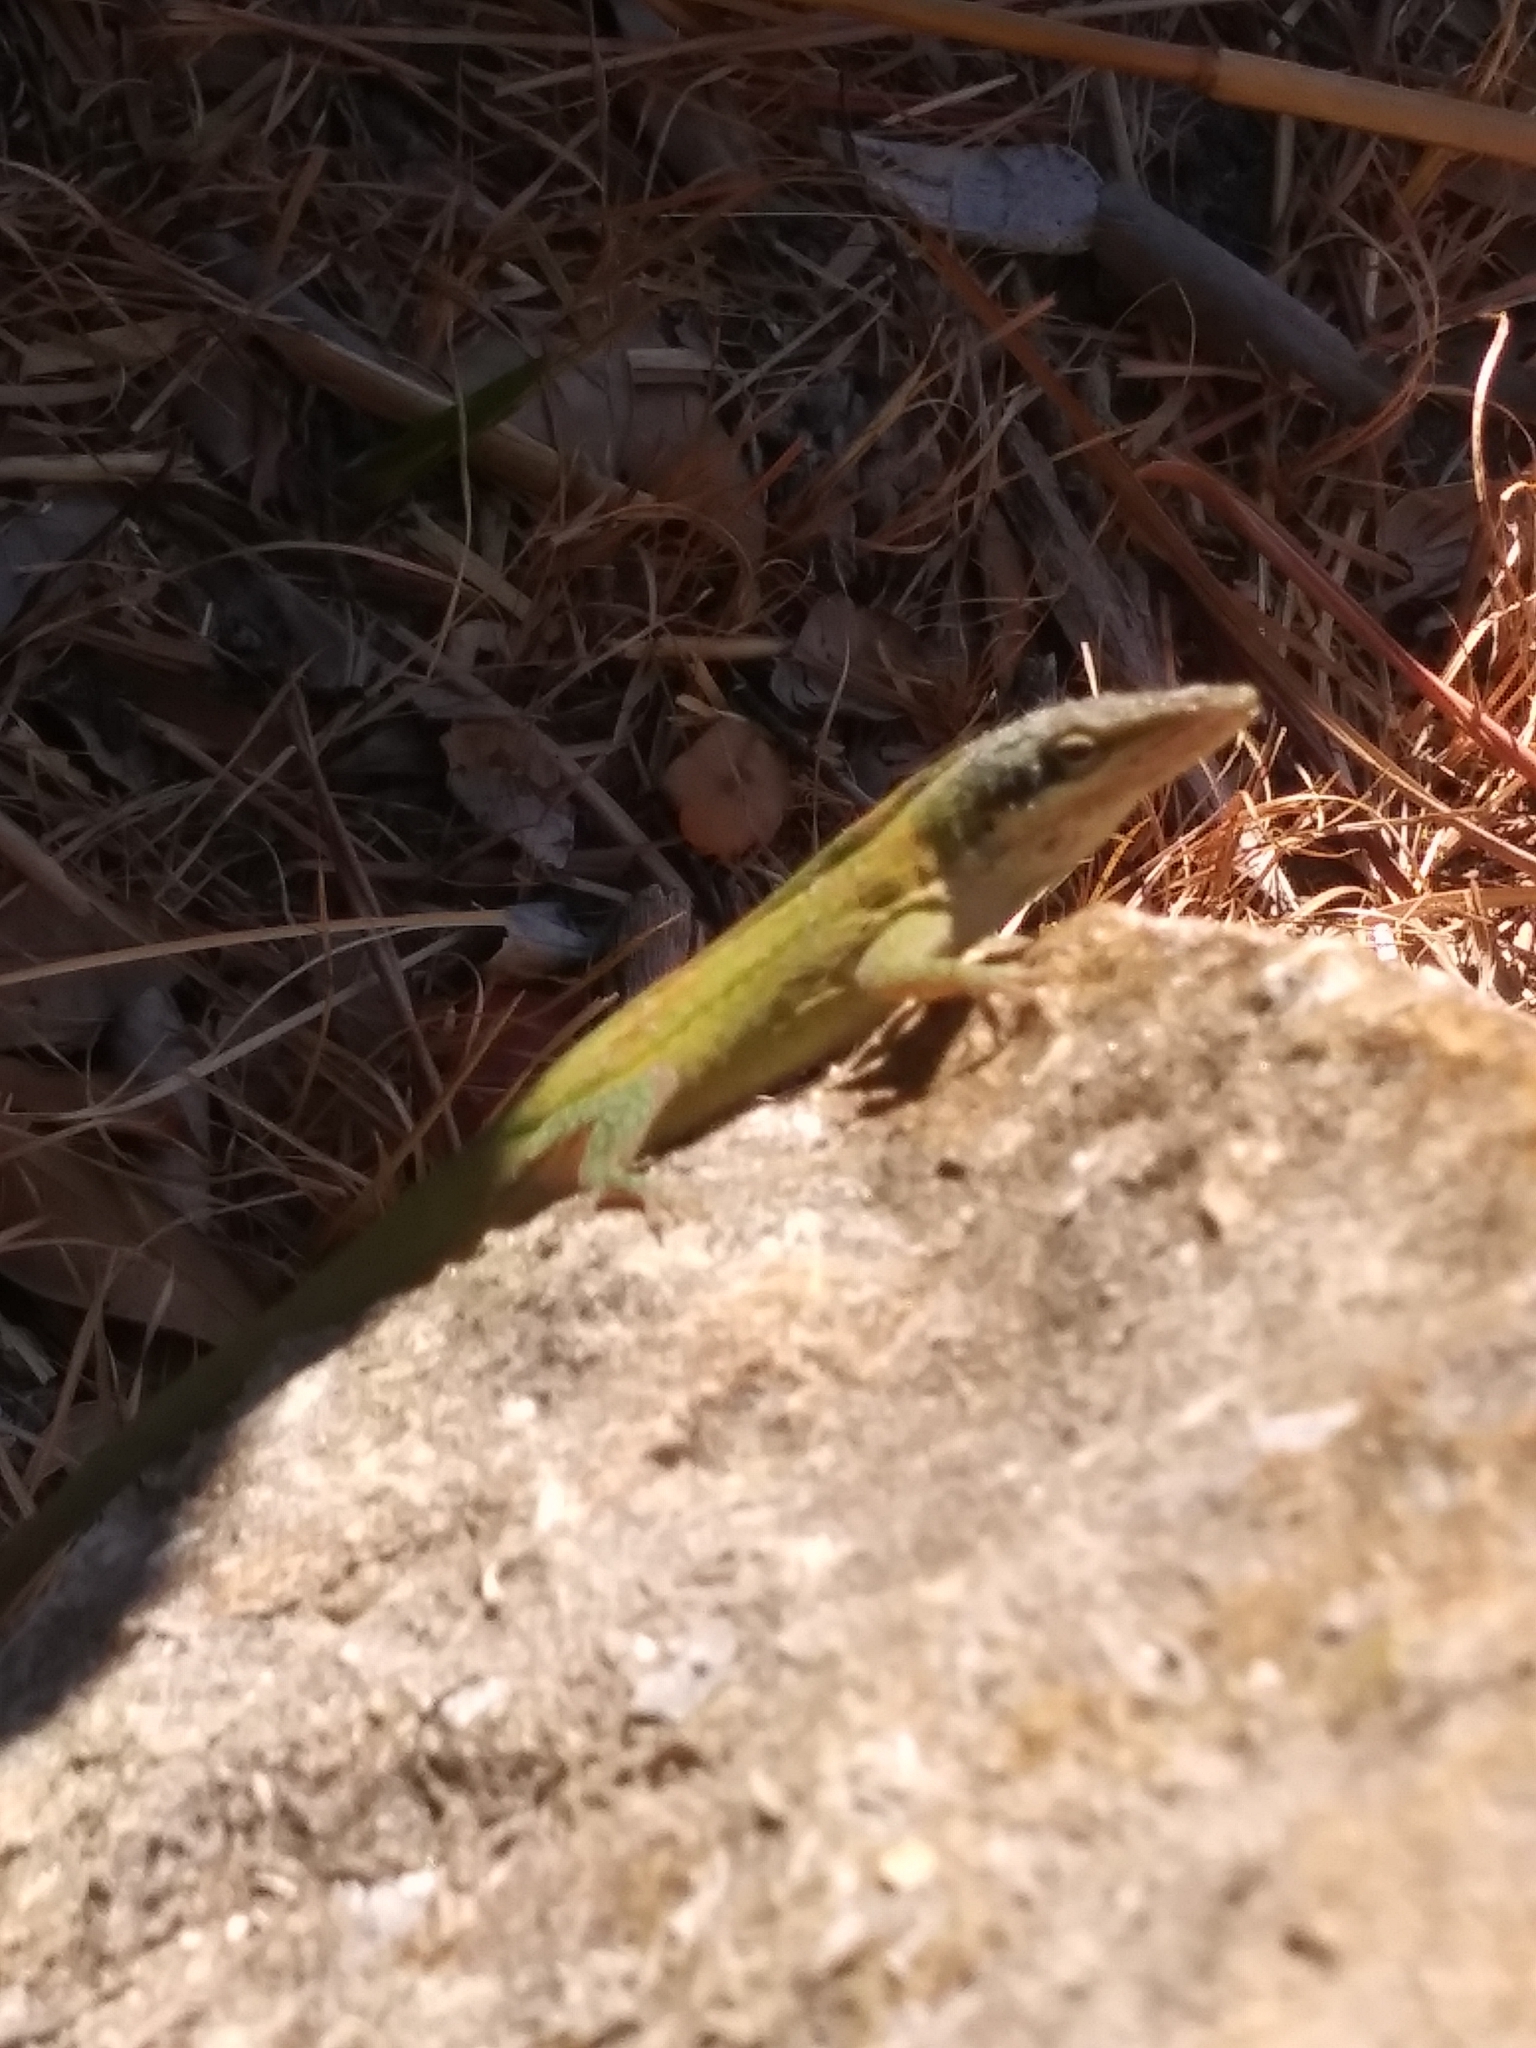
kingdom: Animalia
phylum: Chordata
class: Squamata
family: Dactyloidae
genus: Anolis
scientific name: Anolis carolinensis
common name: Green anole
